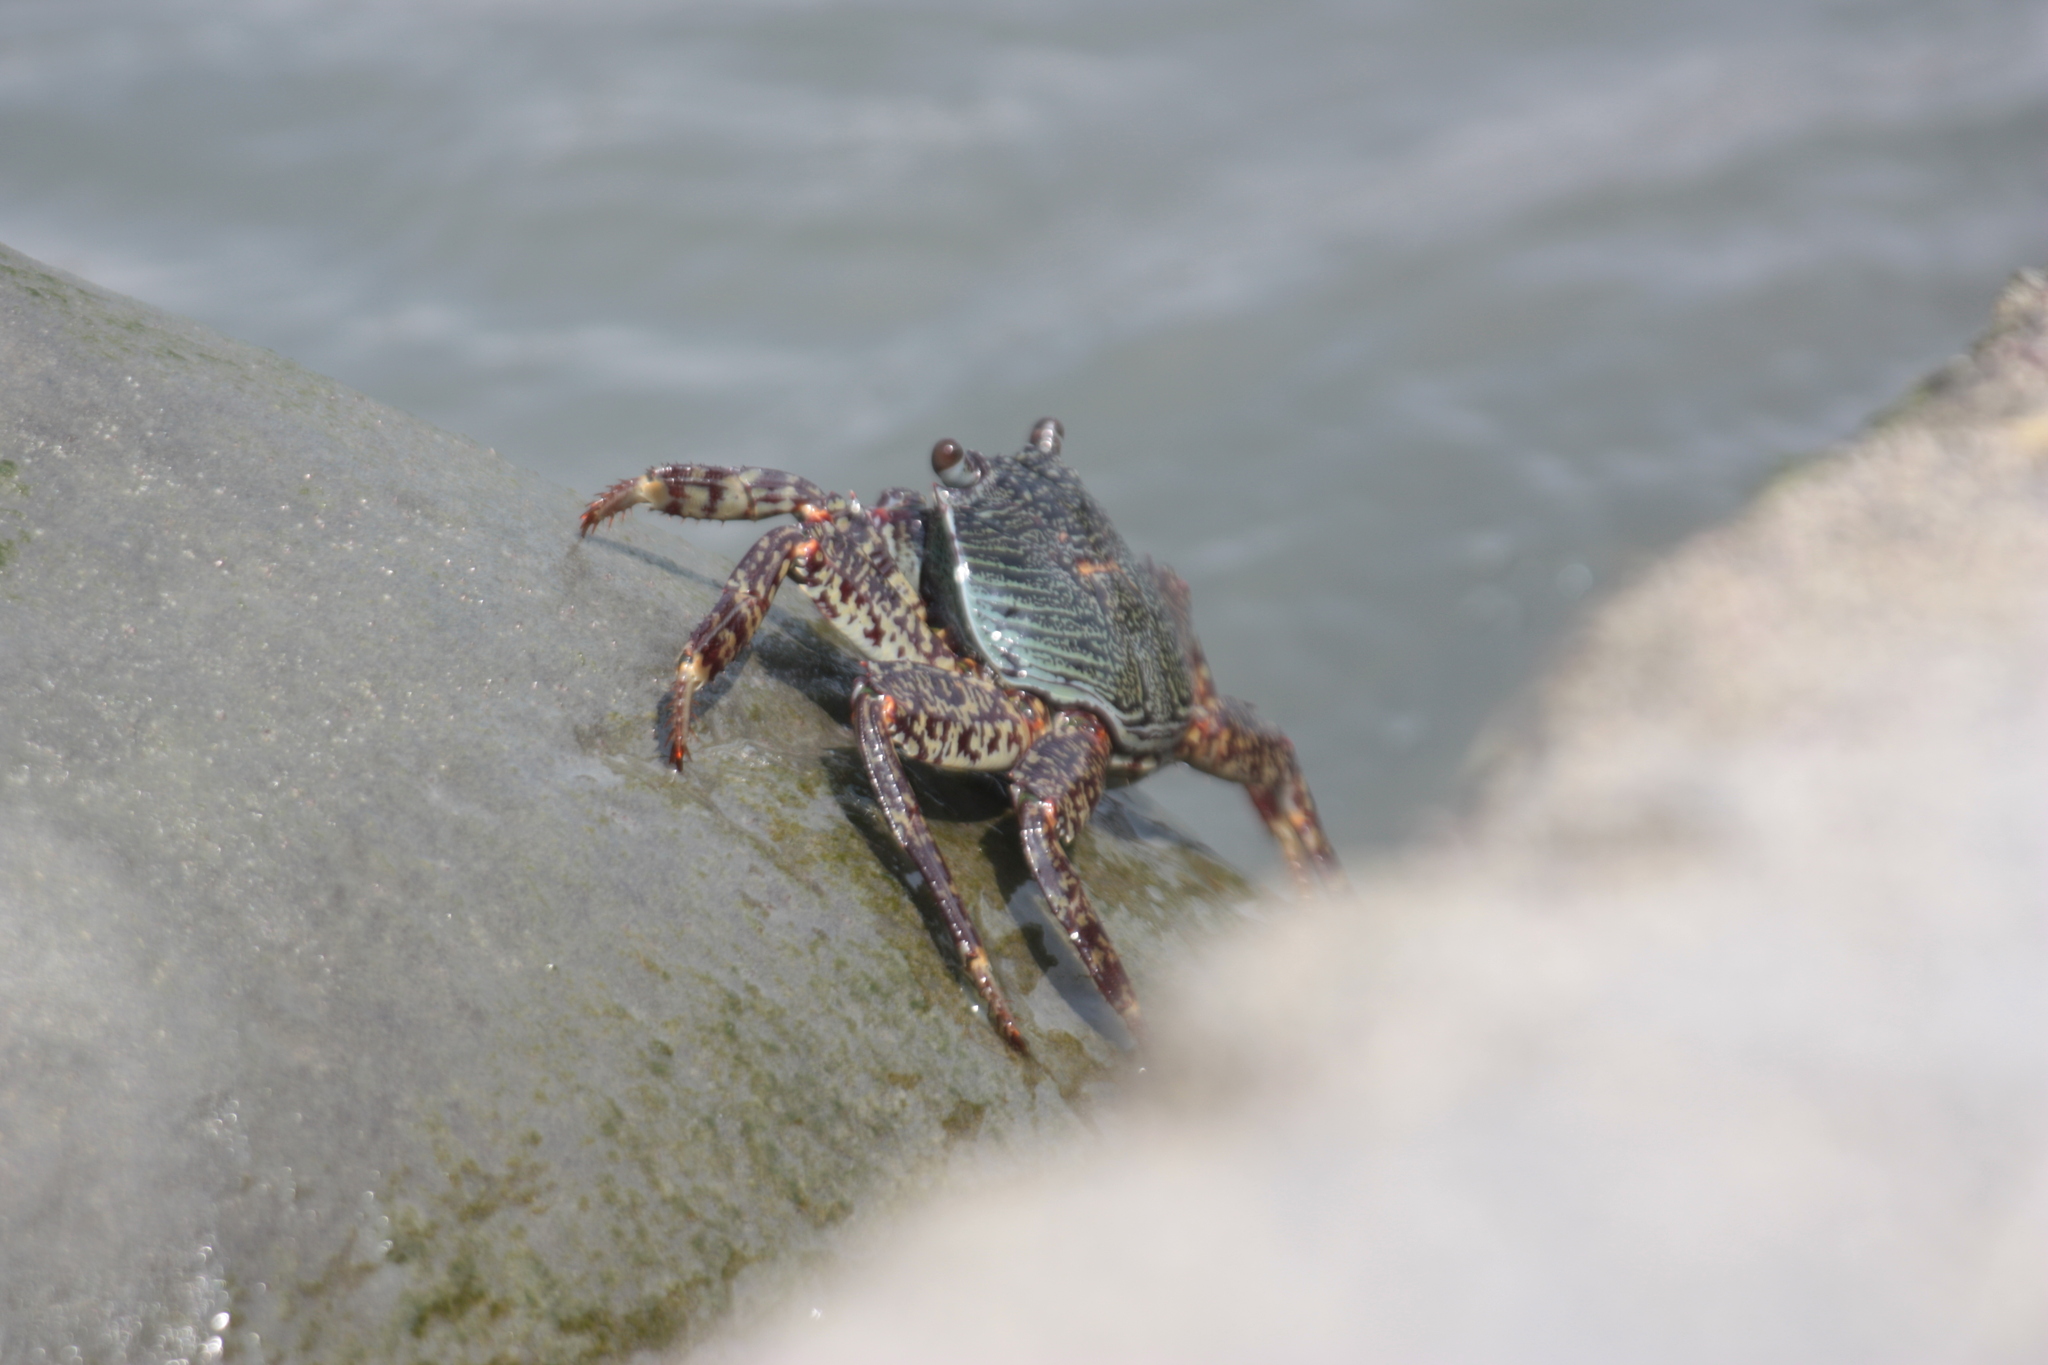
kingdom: Animalia
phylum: Arthropoda
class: Malacostraca
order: Decapoda
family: Grapsidae
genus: Grapsus
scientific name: Grapsus albolineatus
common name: Mottled lightfoot crab
